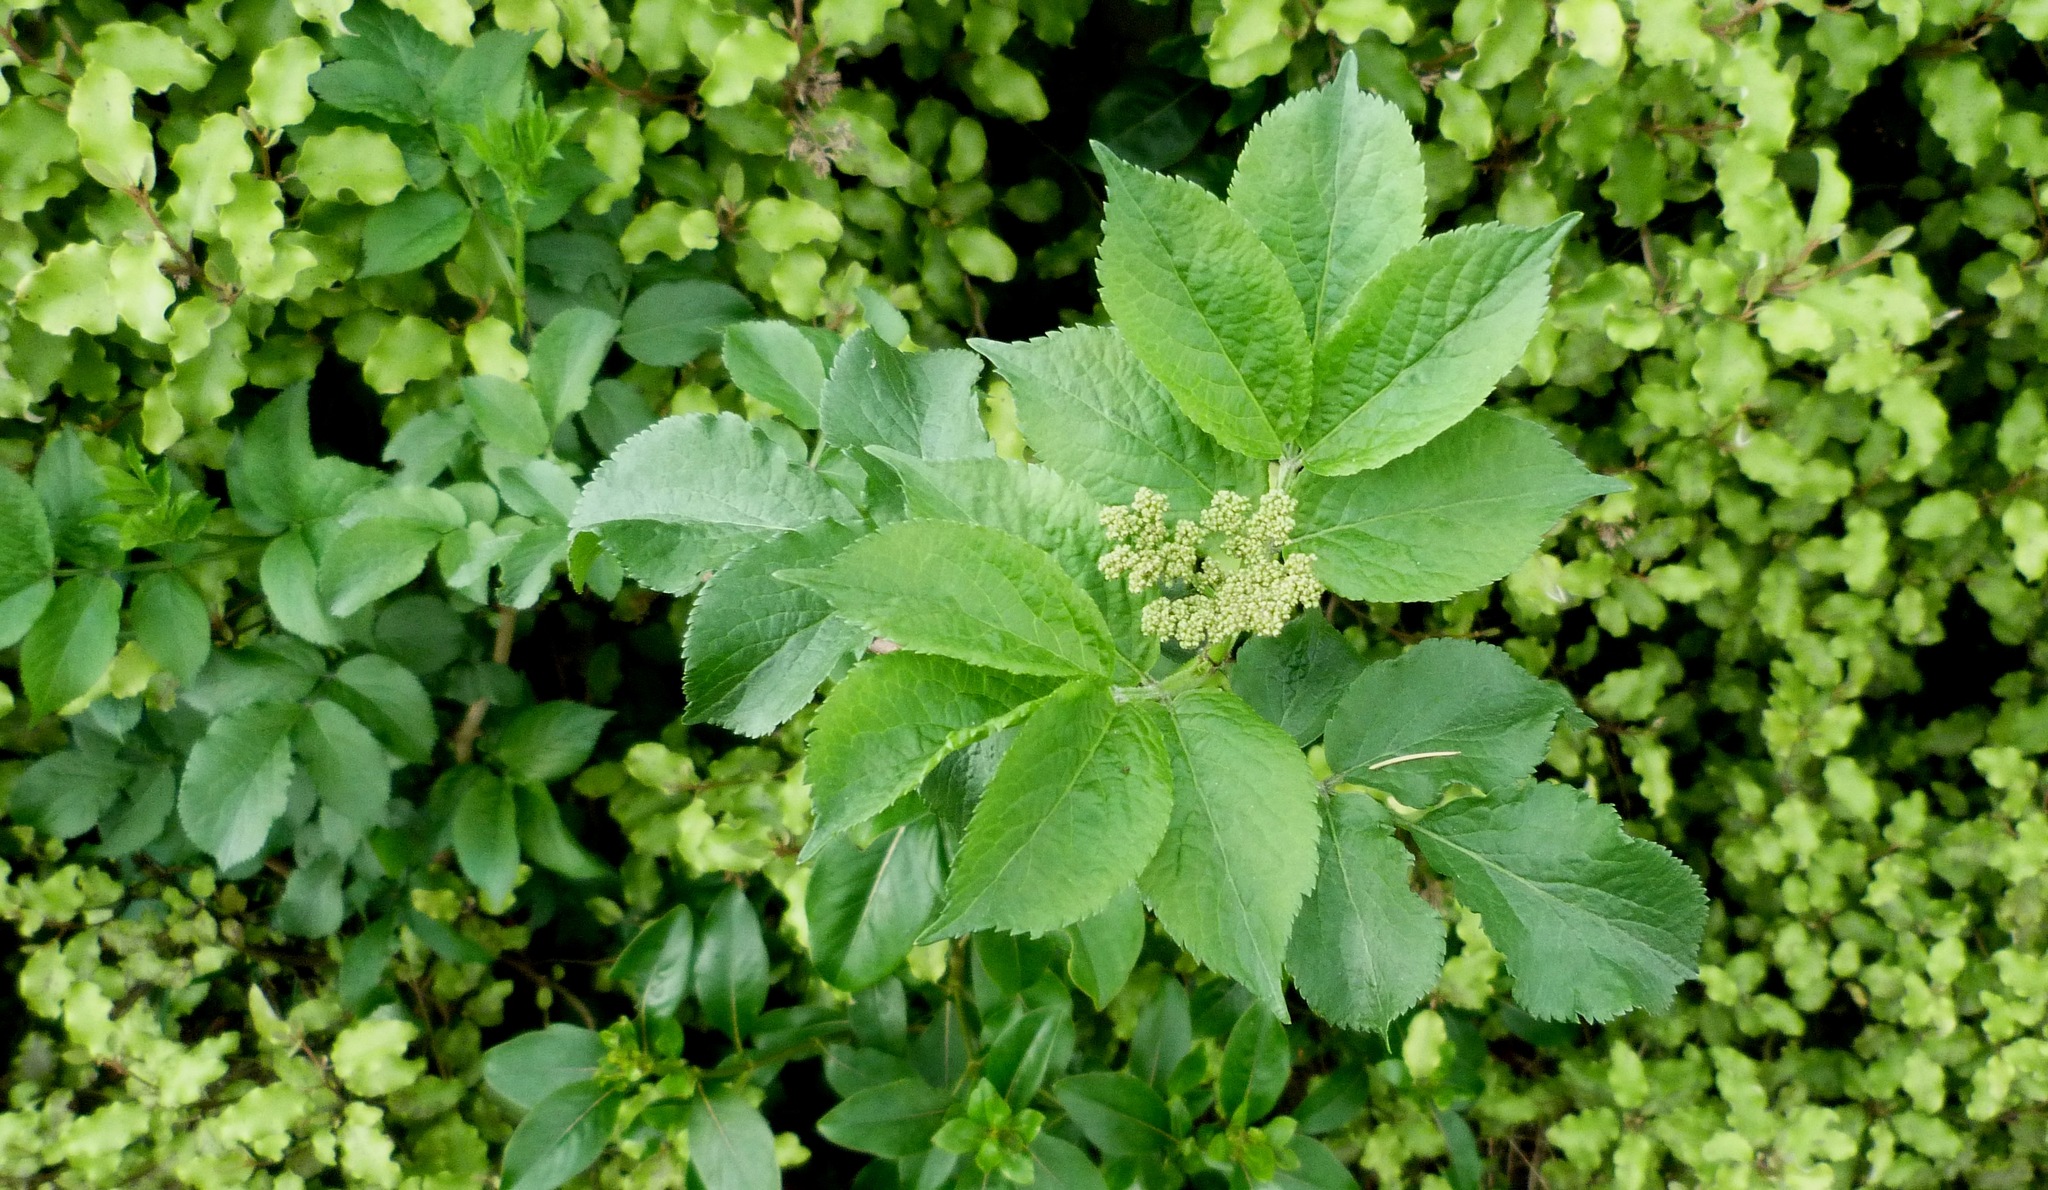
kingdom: Plantae
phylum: Tracheophyta
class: Magnoliopsida
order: Dipsacales
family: Viburnaceae
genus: Sambucus
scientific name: Sambucus nigra
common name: Elder
